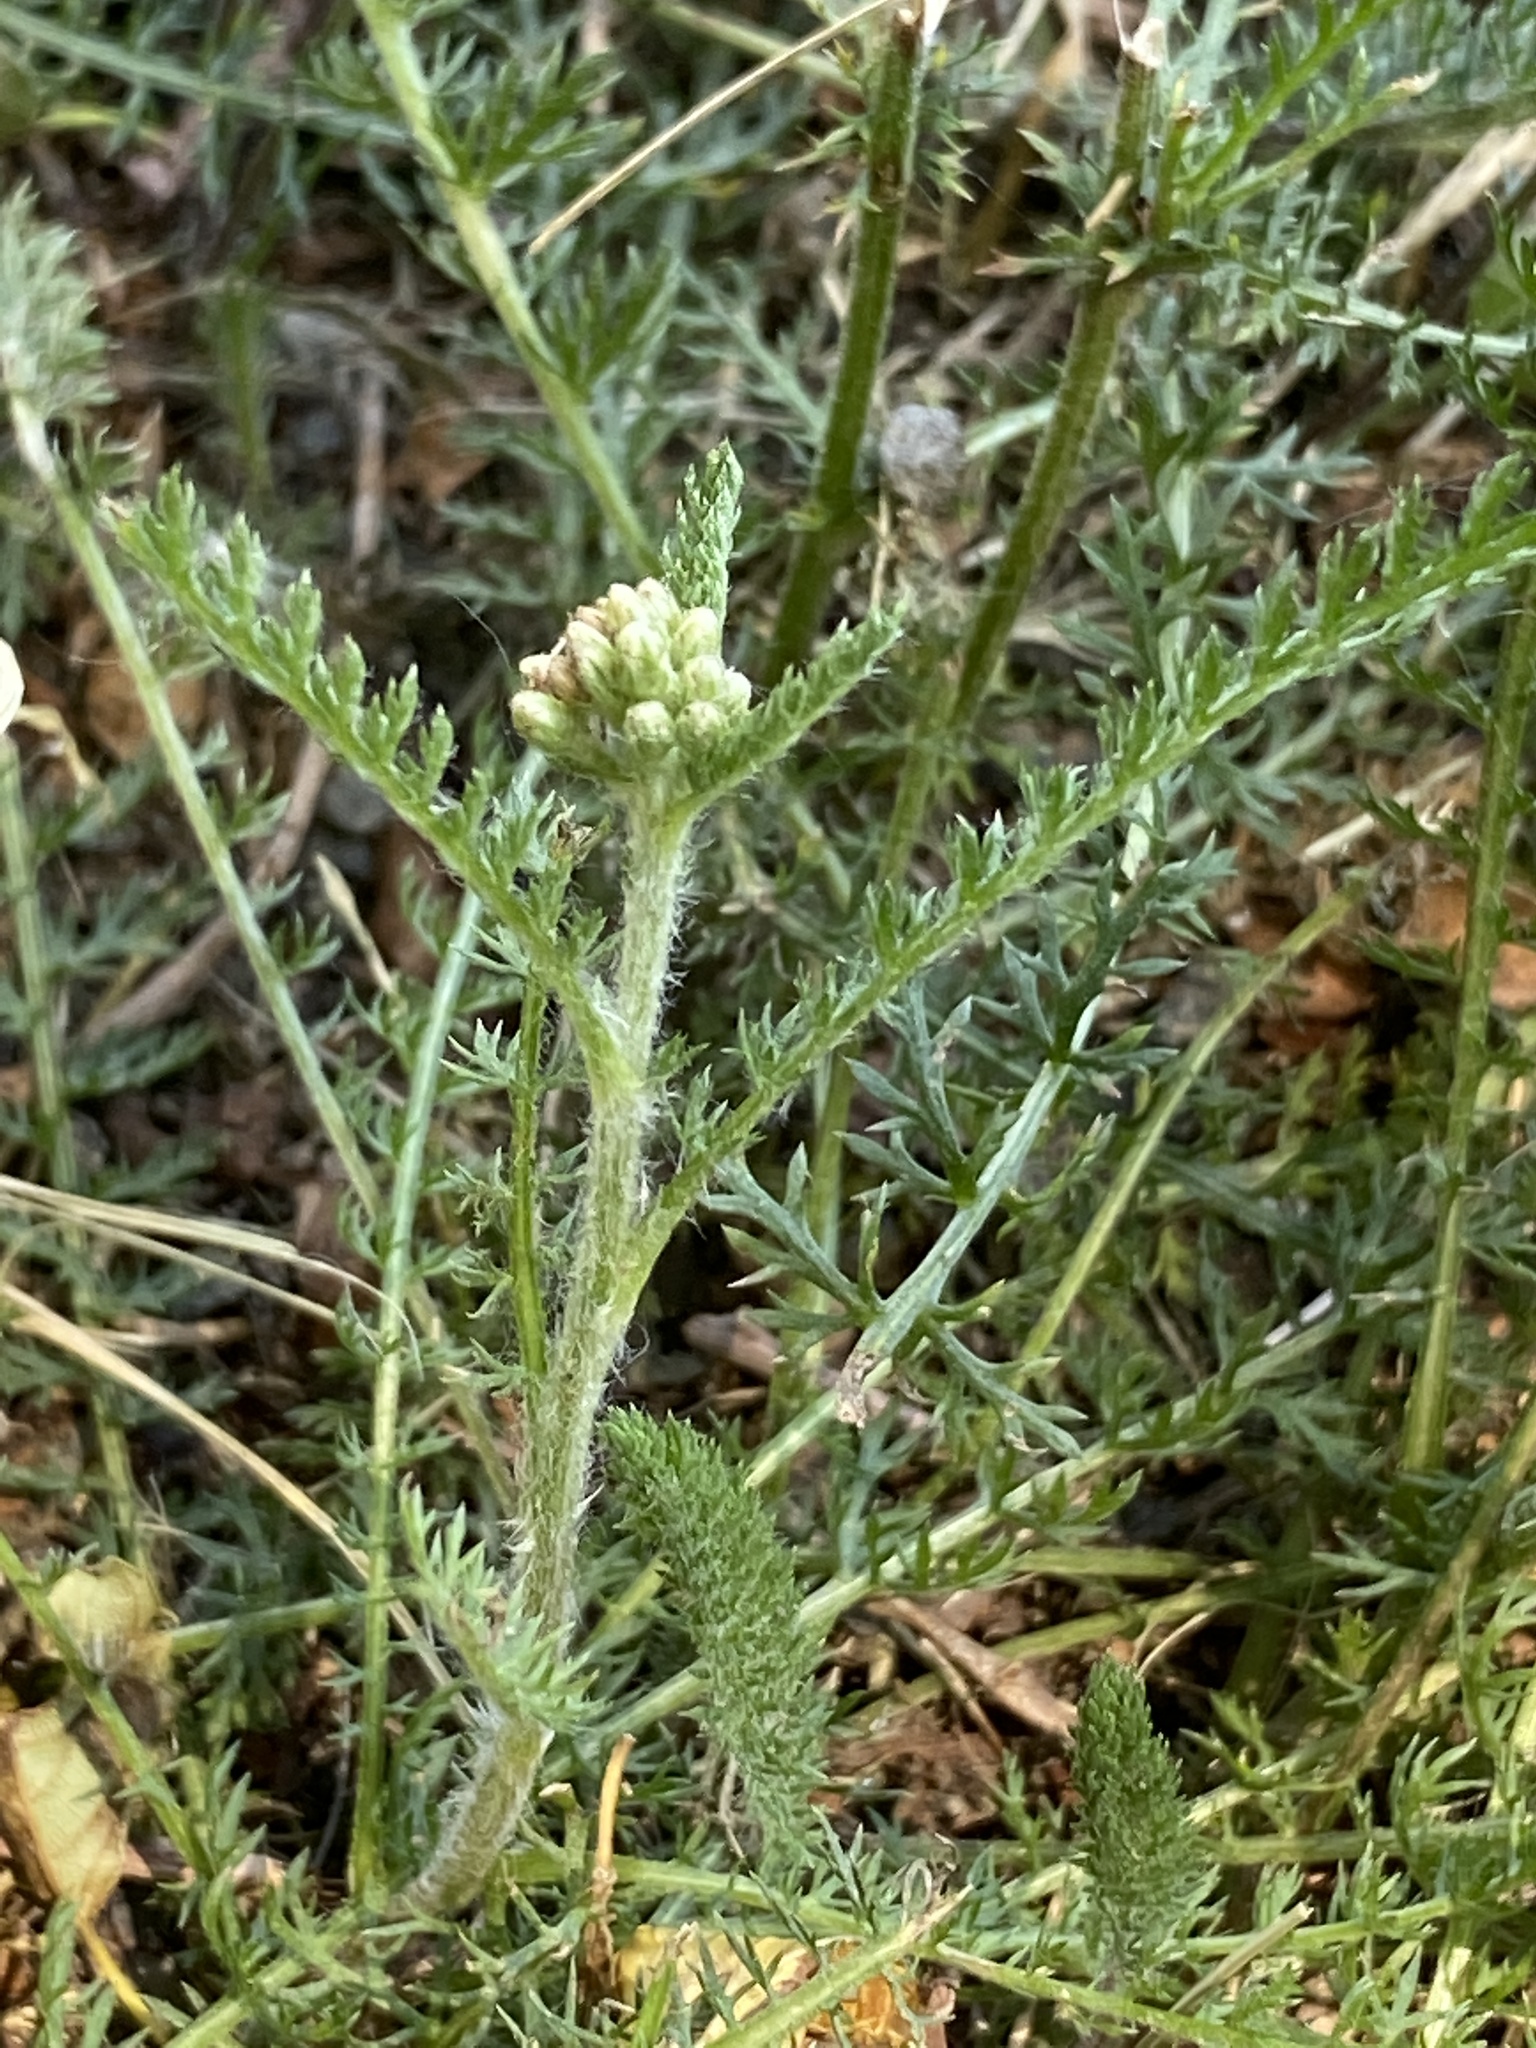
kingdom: Plantae
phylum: Tracheophyta
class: Magnoliopsida
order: Asterales
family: Asteraceae
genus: Achillea
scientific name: Achillea millefolium
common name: Yarrow
